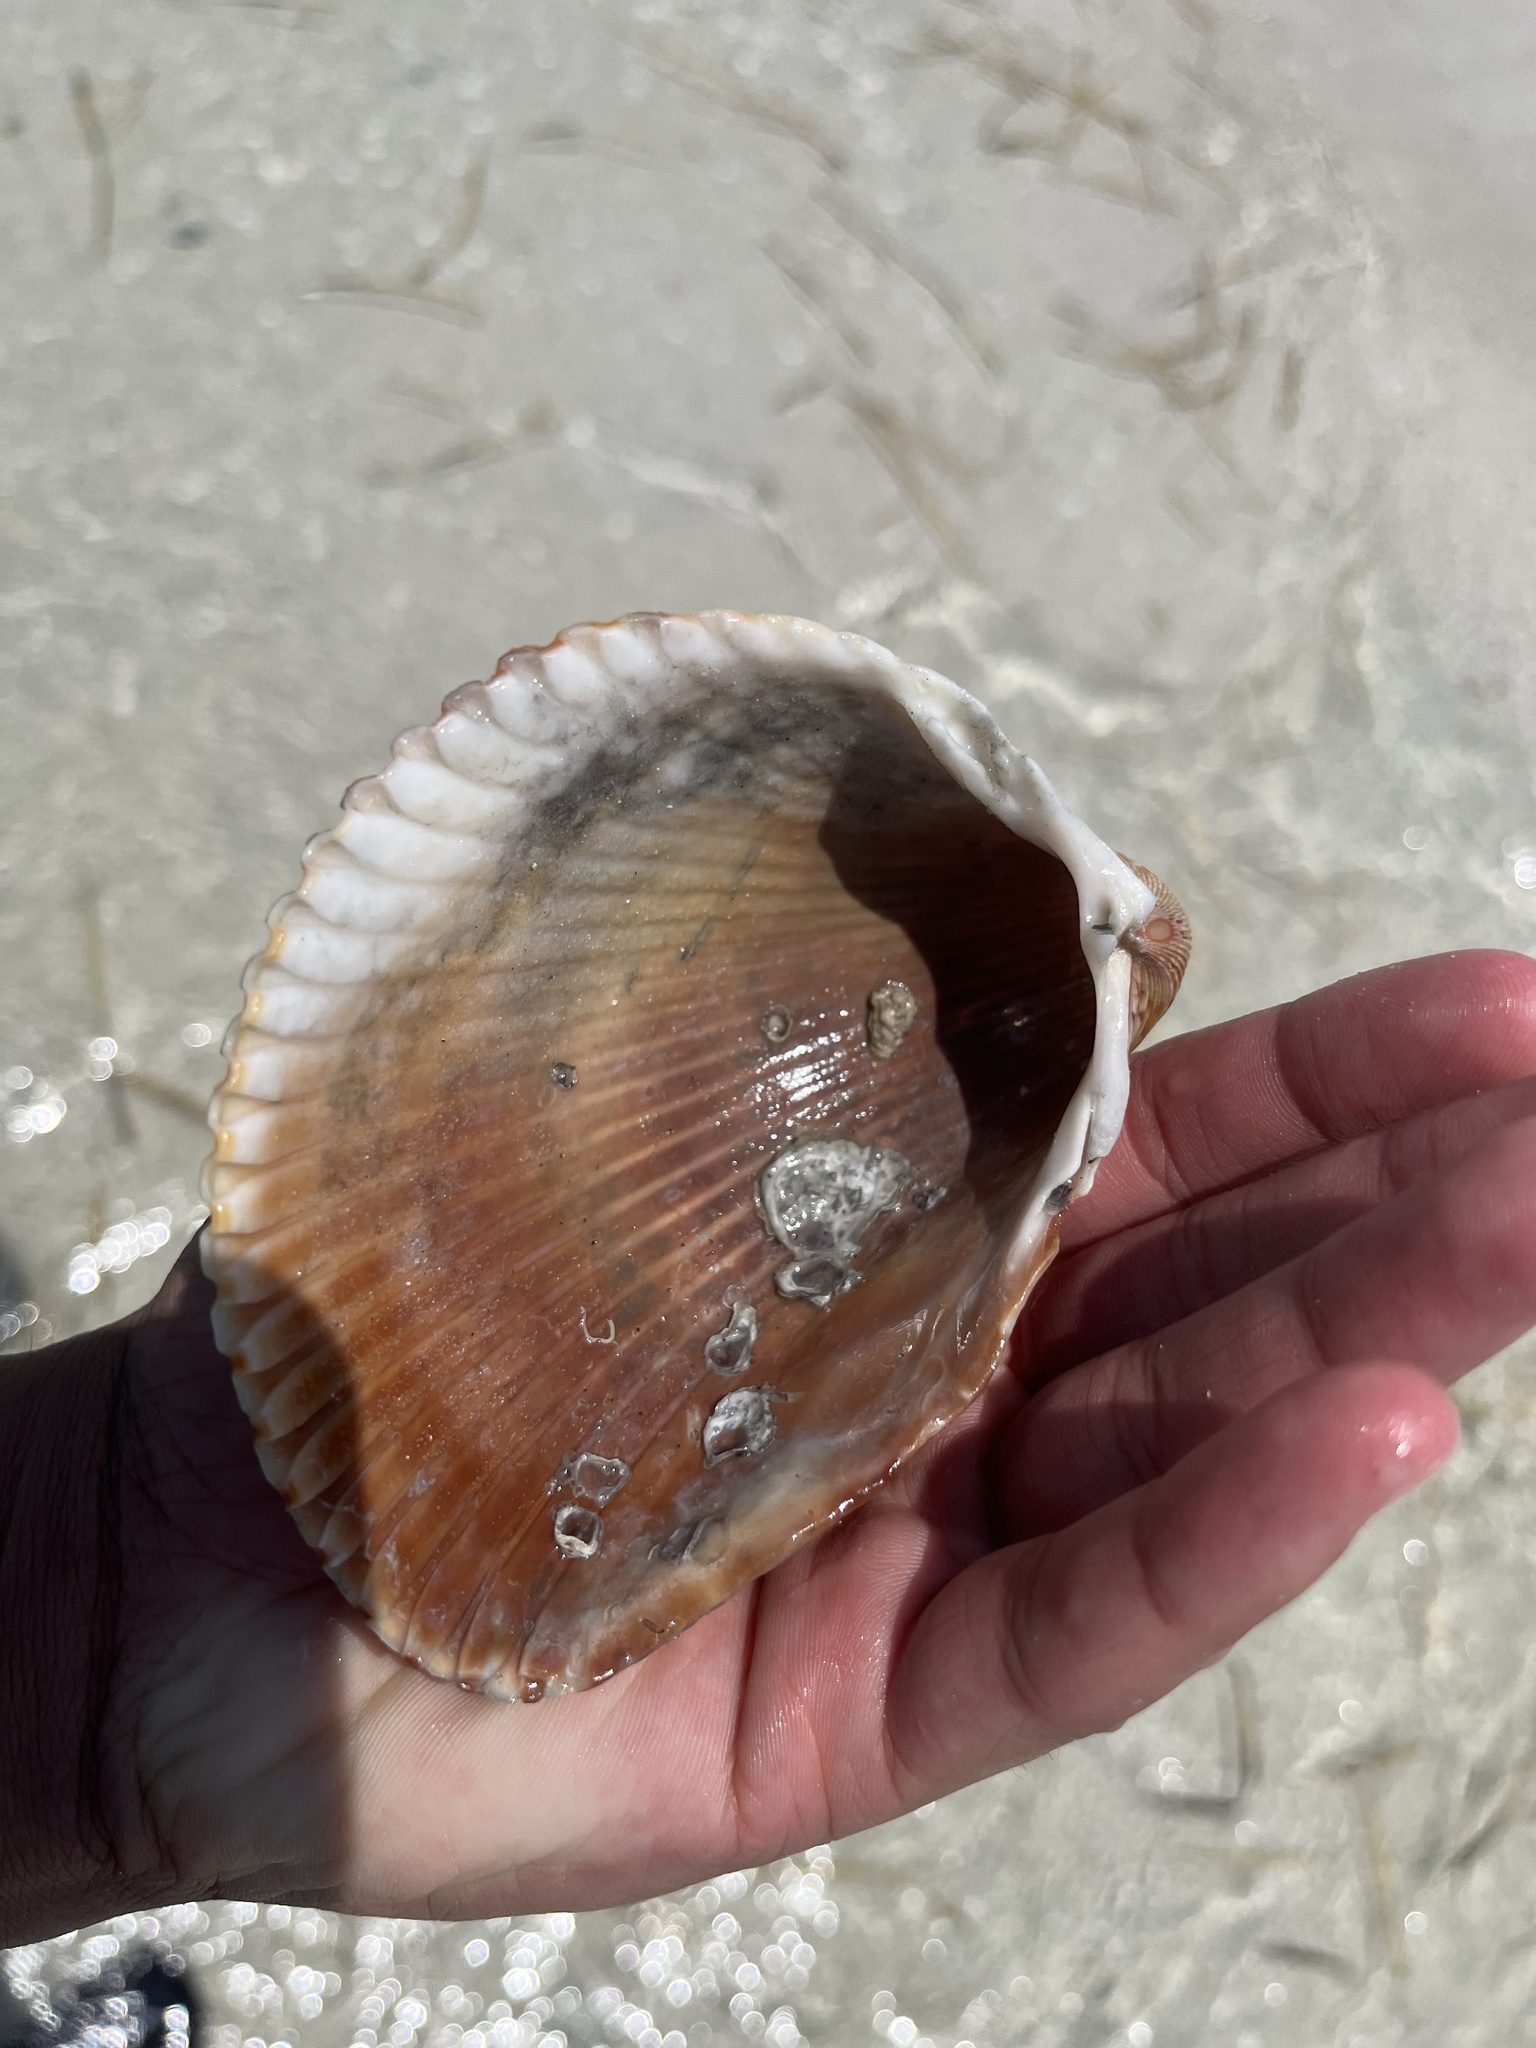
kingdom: Animalia
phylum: Mollusca
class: Bivalvia
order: Cardiida
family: Cardiidae
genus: Dinocardium
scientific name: Dinocardium robustum
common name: Atlantic giant cockle
